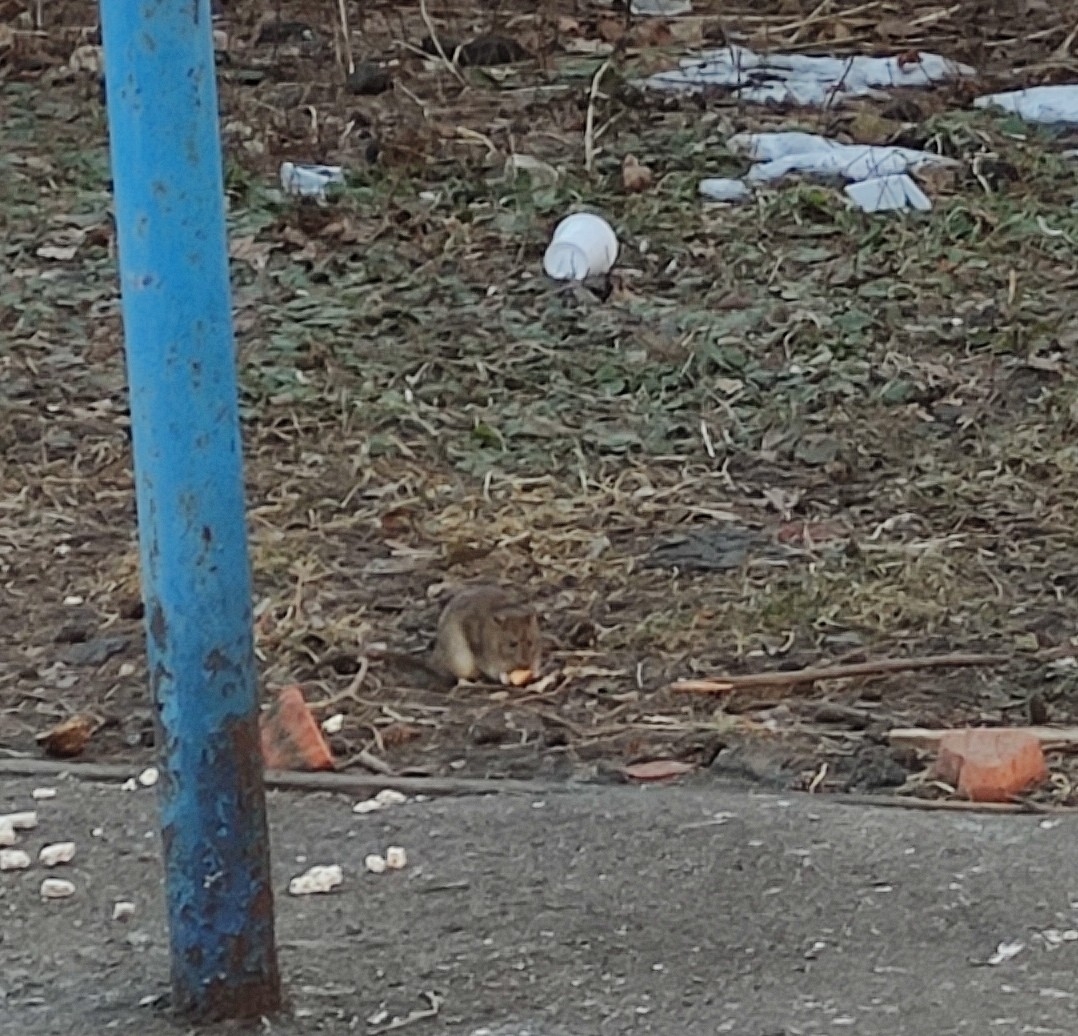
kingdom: Animalia
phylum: Chordata
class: Mammalia
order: Rodentia
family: Muridae
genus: Rattus
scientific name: Rattus norvegicus
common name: Brown rat
